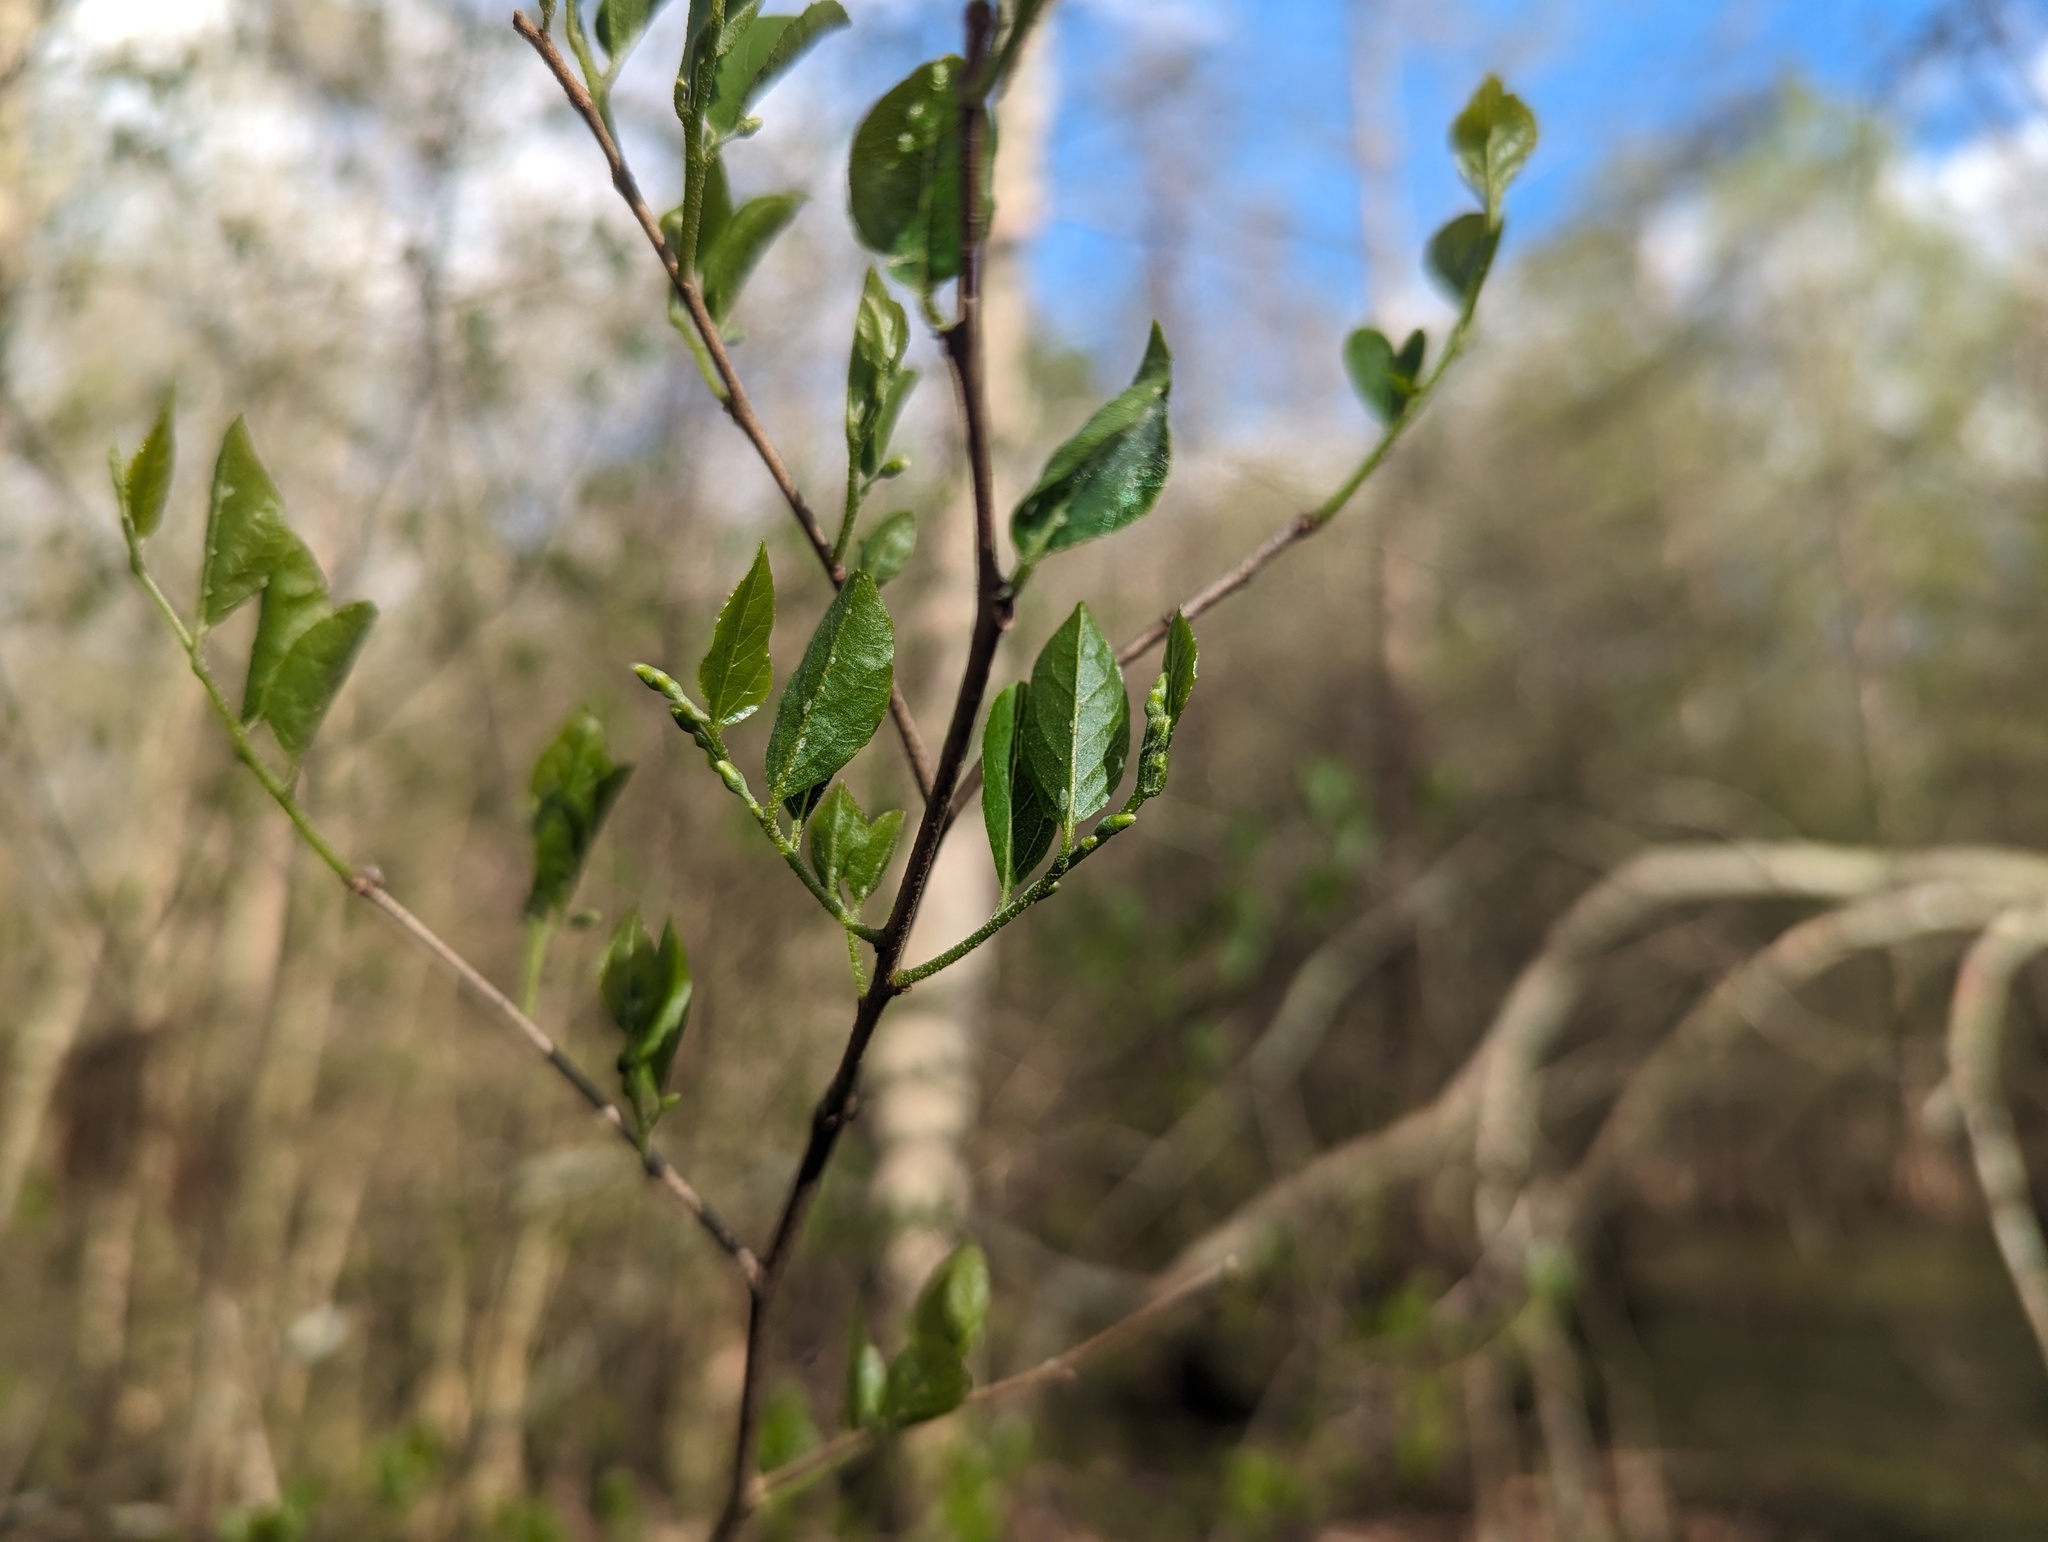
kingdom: Plantae
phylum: Tracheophyta
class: Magnoliopsida
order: Ericales
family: Styracaceae
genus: Styrax
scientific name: Styrax americanus
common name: American snowbell
